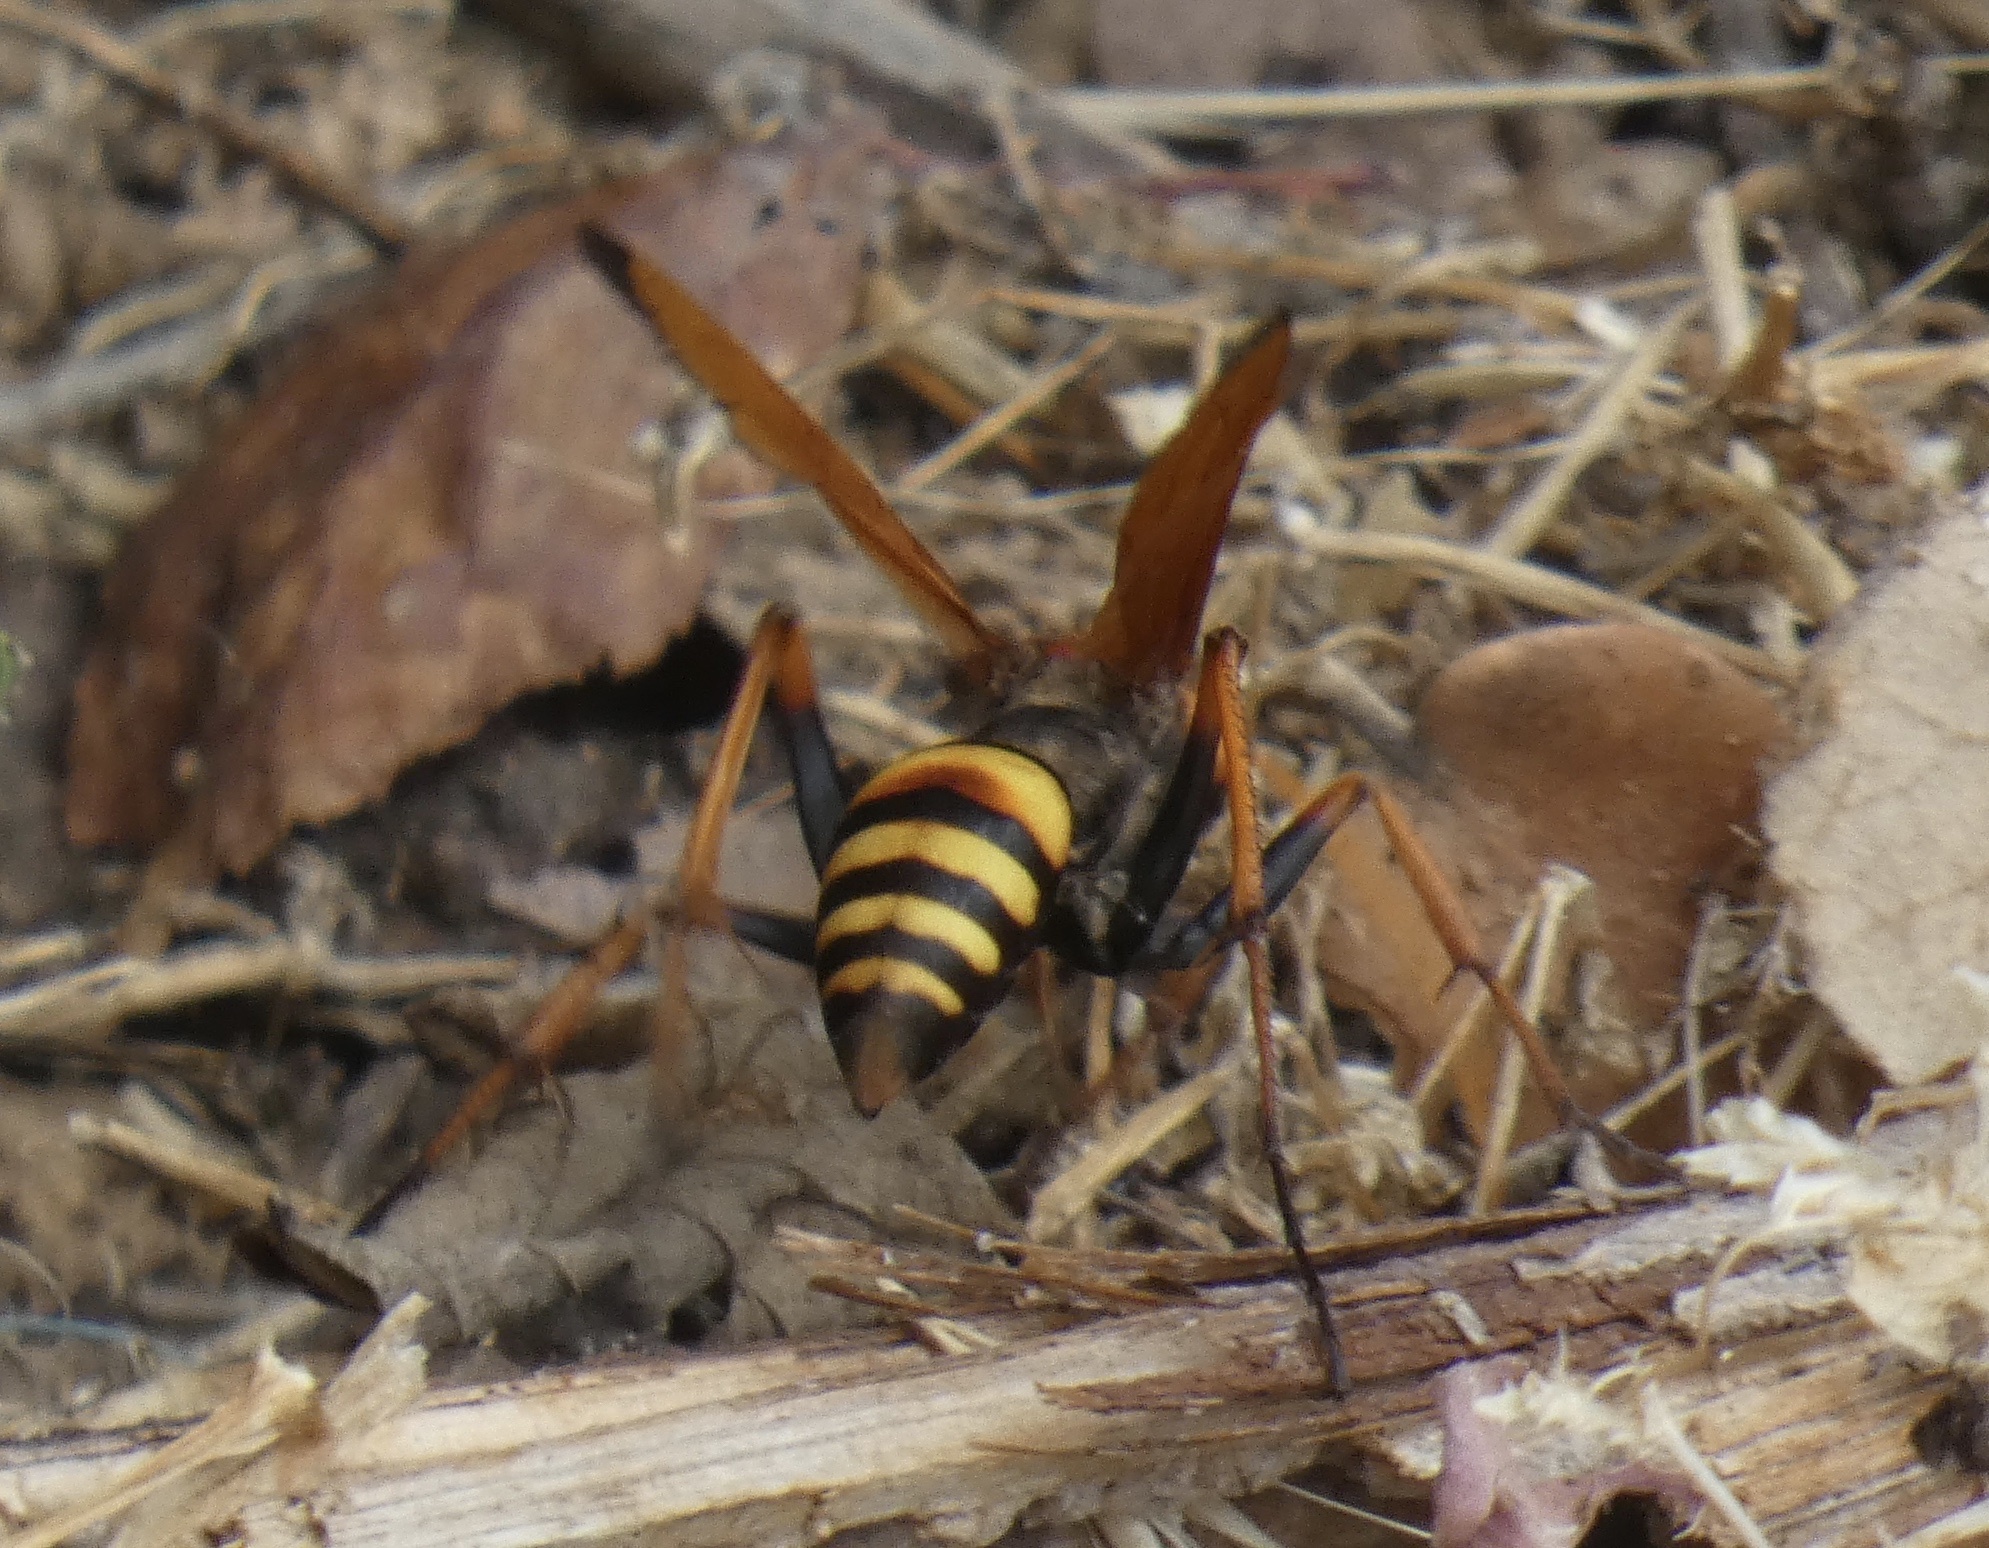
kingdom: Animalia
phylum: Arthropoda
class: Insecta
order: Hymenoptera
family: Pompilidae
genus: Cryptocheilus
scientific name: Cryptocheilus alternatus
